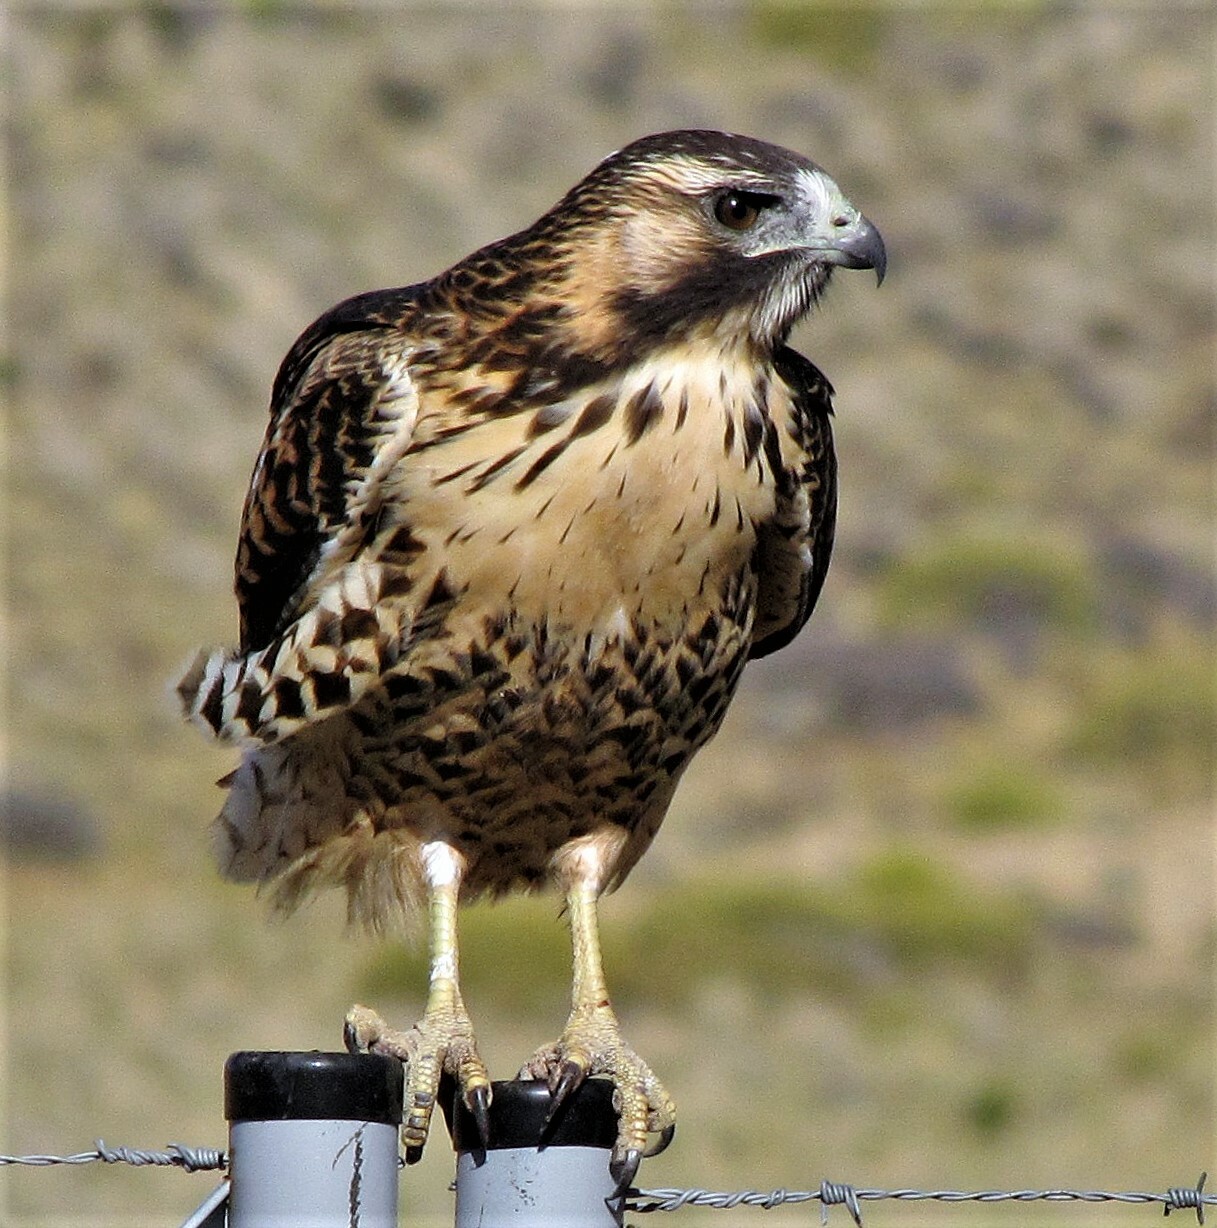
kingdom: Animalia
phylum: Chordata
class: Aves
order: Accipitriformes
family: Accipitridae
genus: Buteo
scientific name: Buteo polyosoma
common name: Variable hawk
